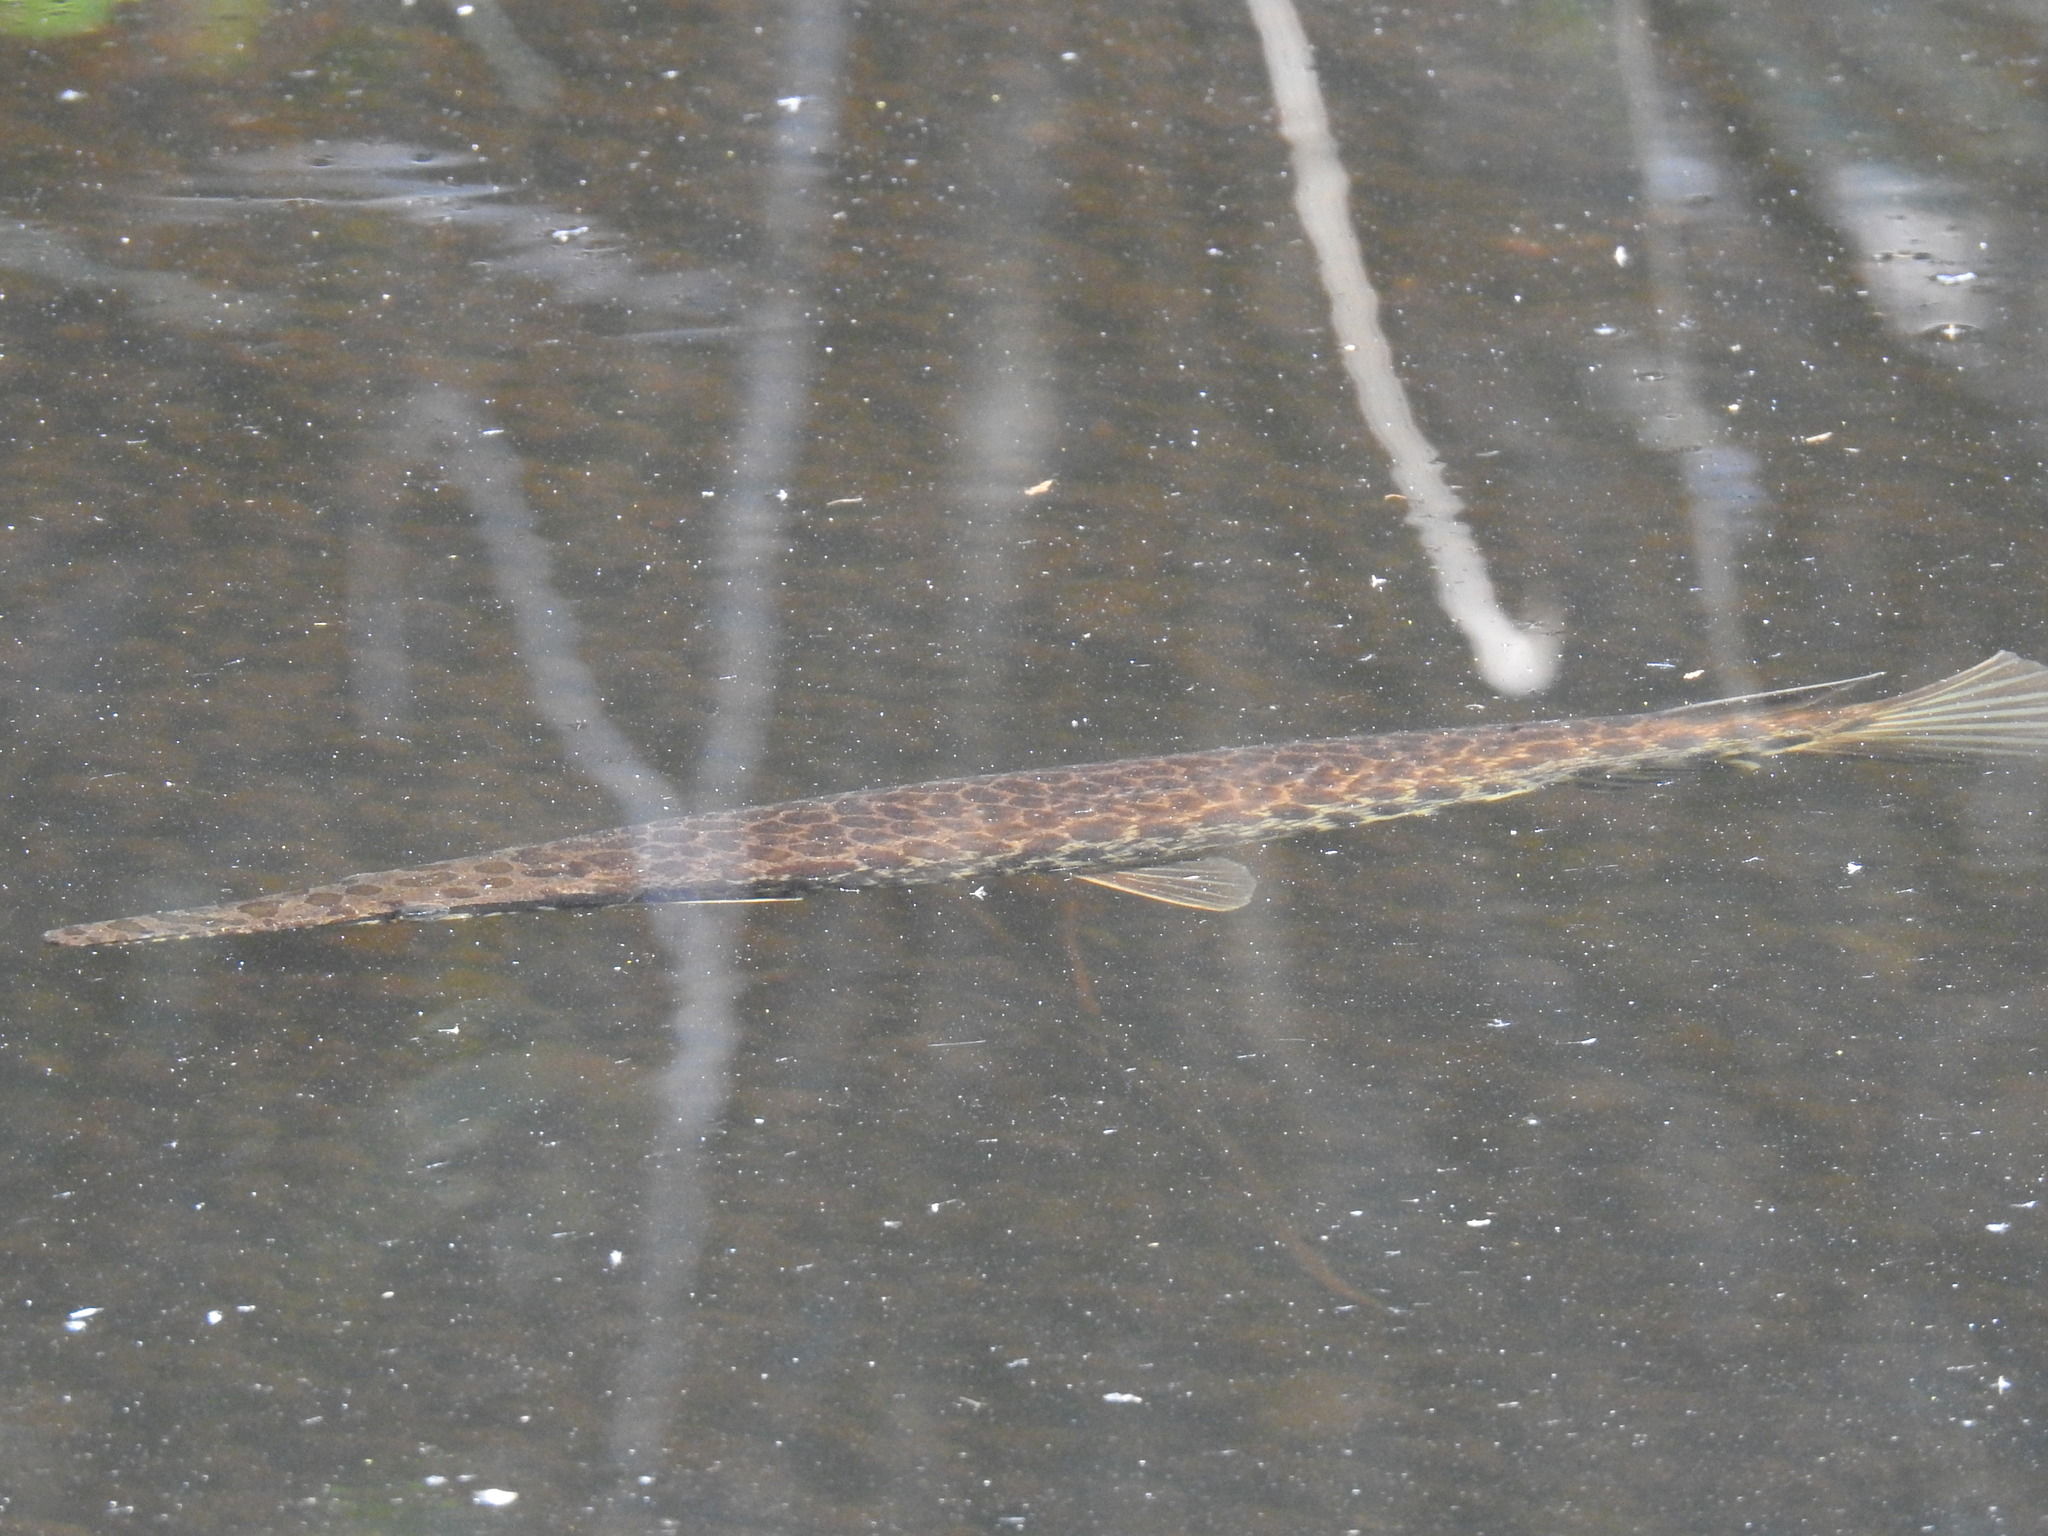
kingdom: Animalia
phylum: Chordata
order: Lepisosteiformes
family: Lepisosteidae
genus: Lepisosteus
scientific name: Lepisosteus platyrhincus
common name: Florida gar
